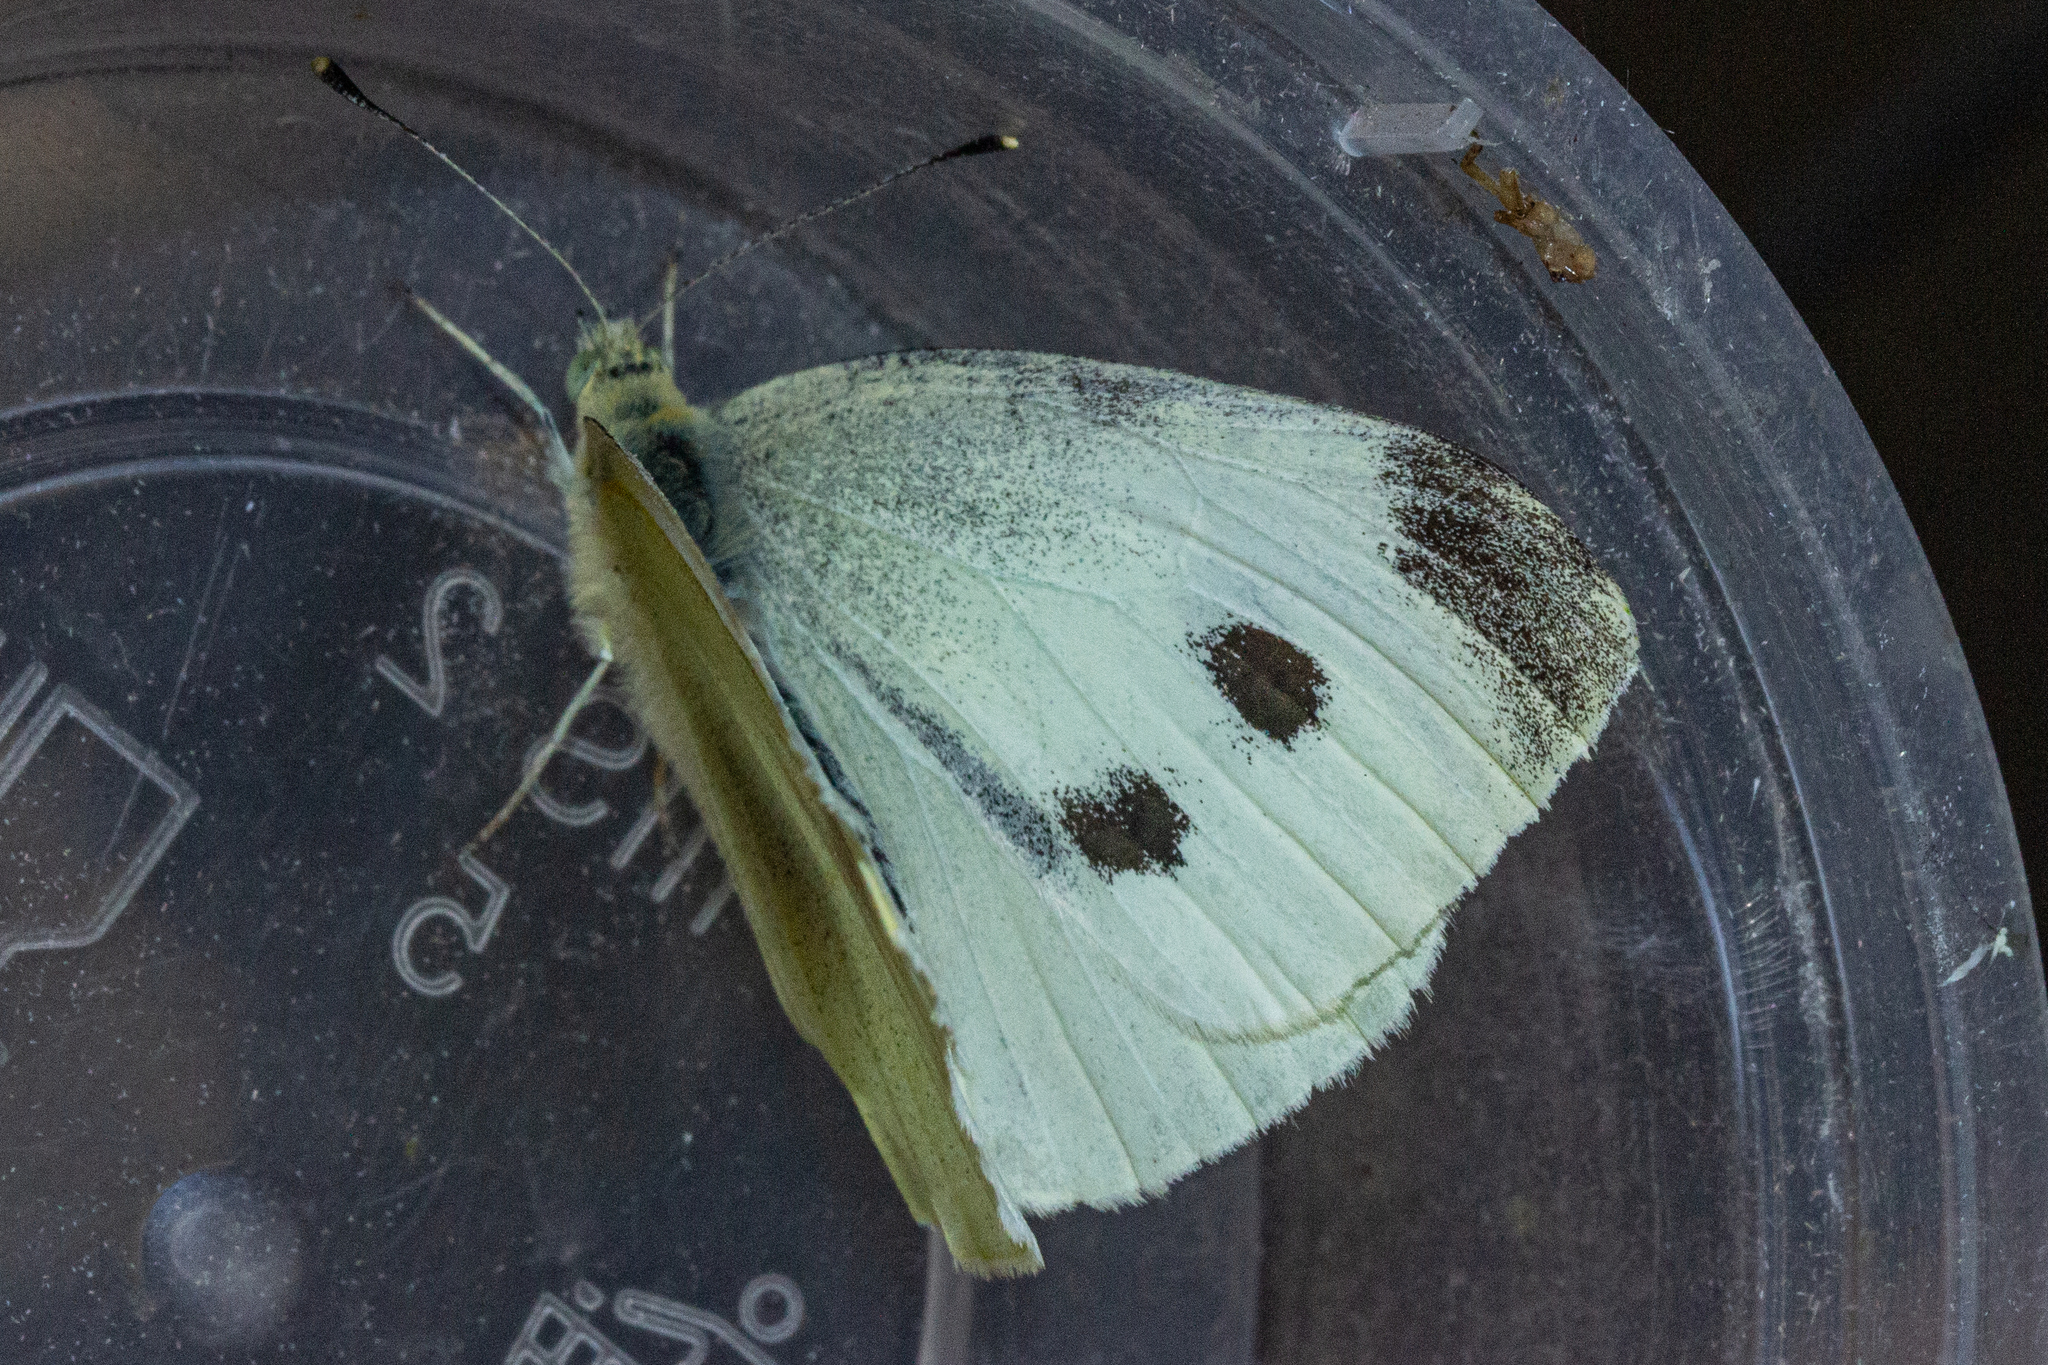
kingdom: Animalia
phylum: Arthropoda
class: Insecta
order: Lepidoptera
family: Pieridae
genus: Pieris
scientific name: Pieris rapae
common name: Small white
